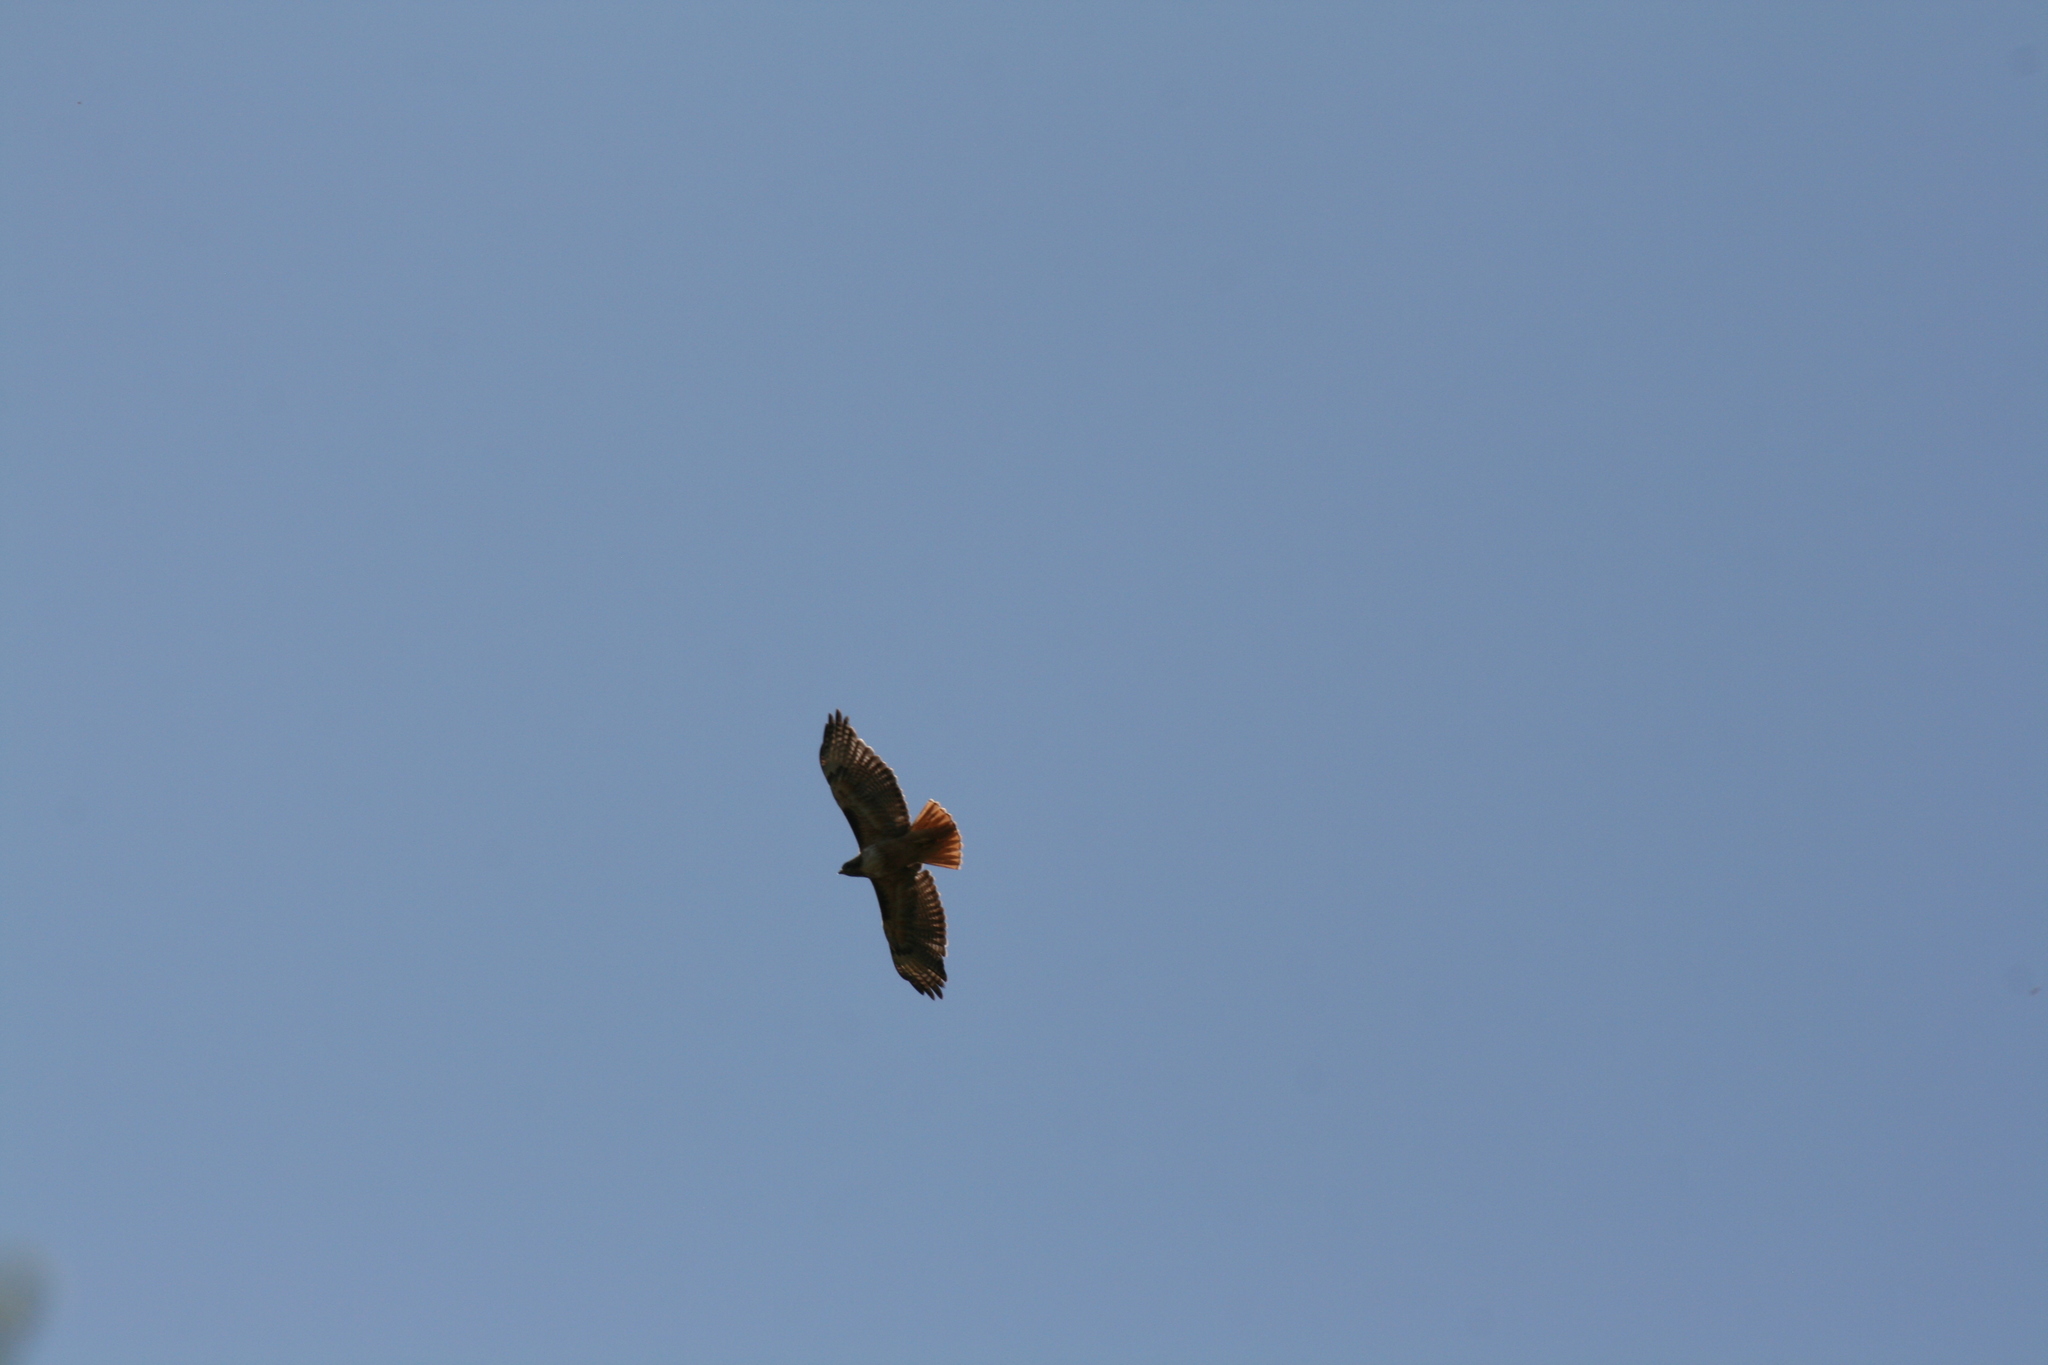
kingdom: Animalia
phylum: Chordata
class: Aves
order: Accipitriformes
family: Accipitridae
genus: Buteo
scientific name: Buteo jamaicensis
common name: Red-tailed hawk
